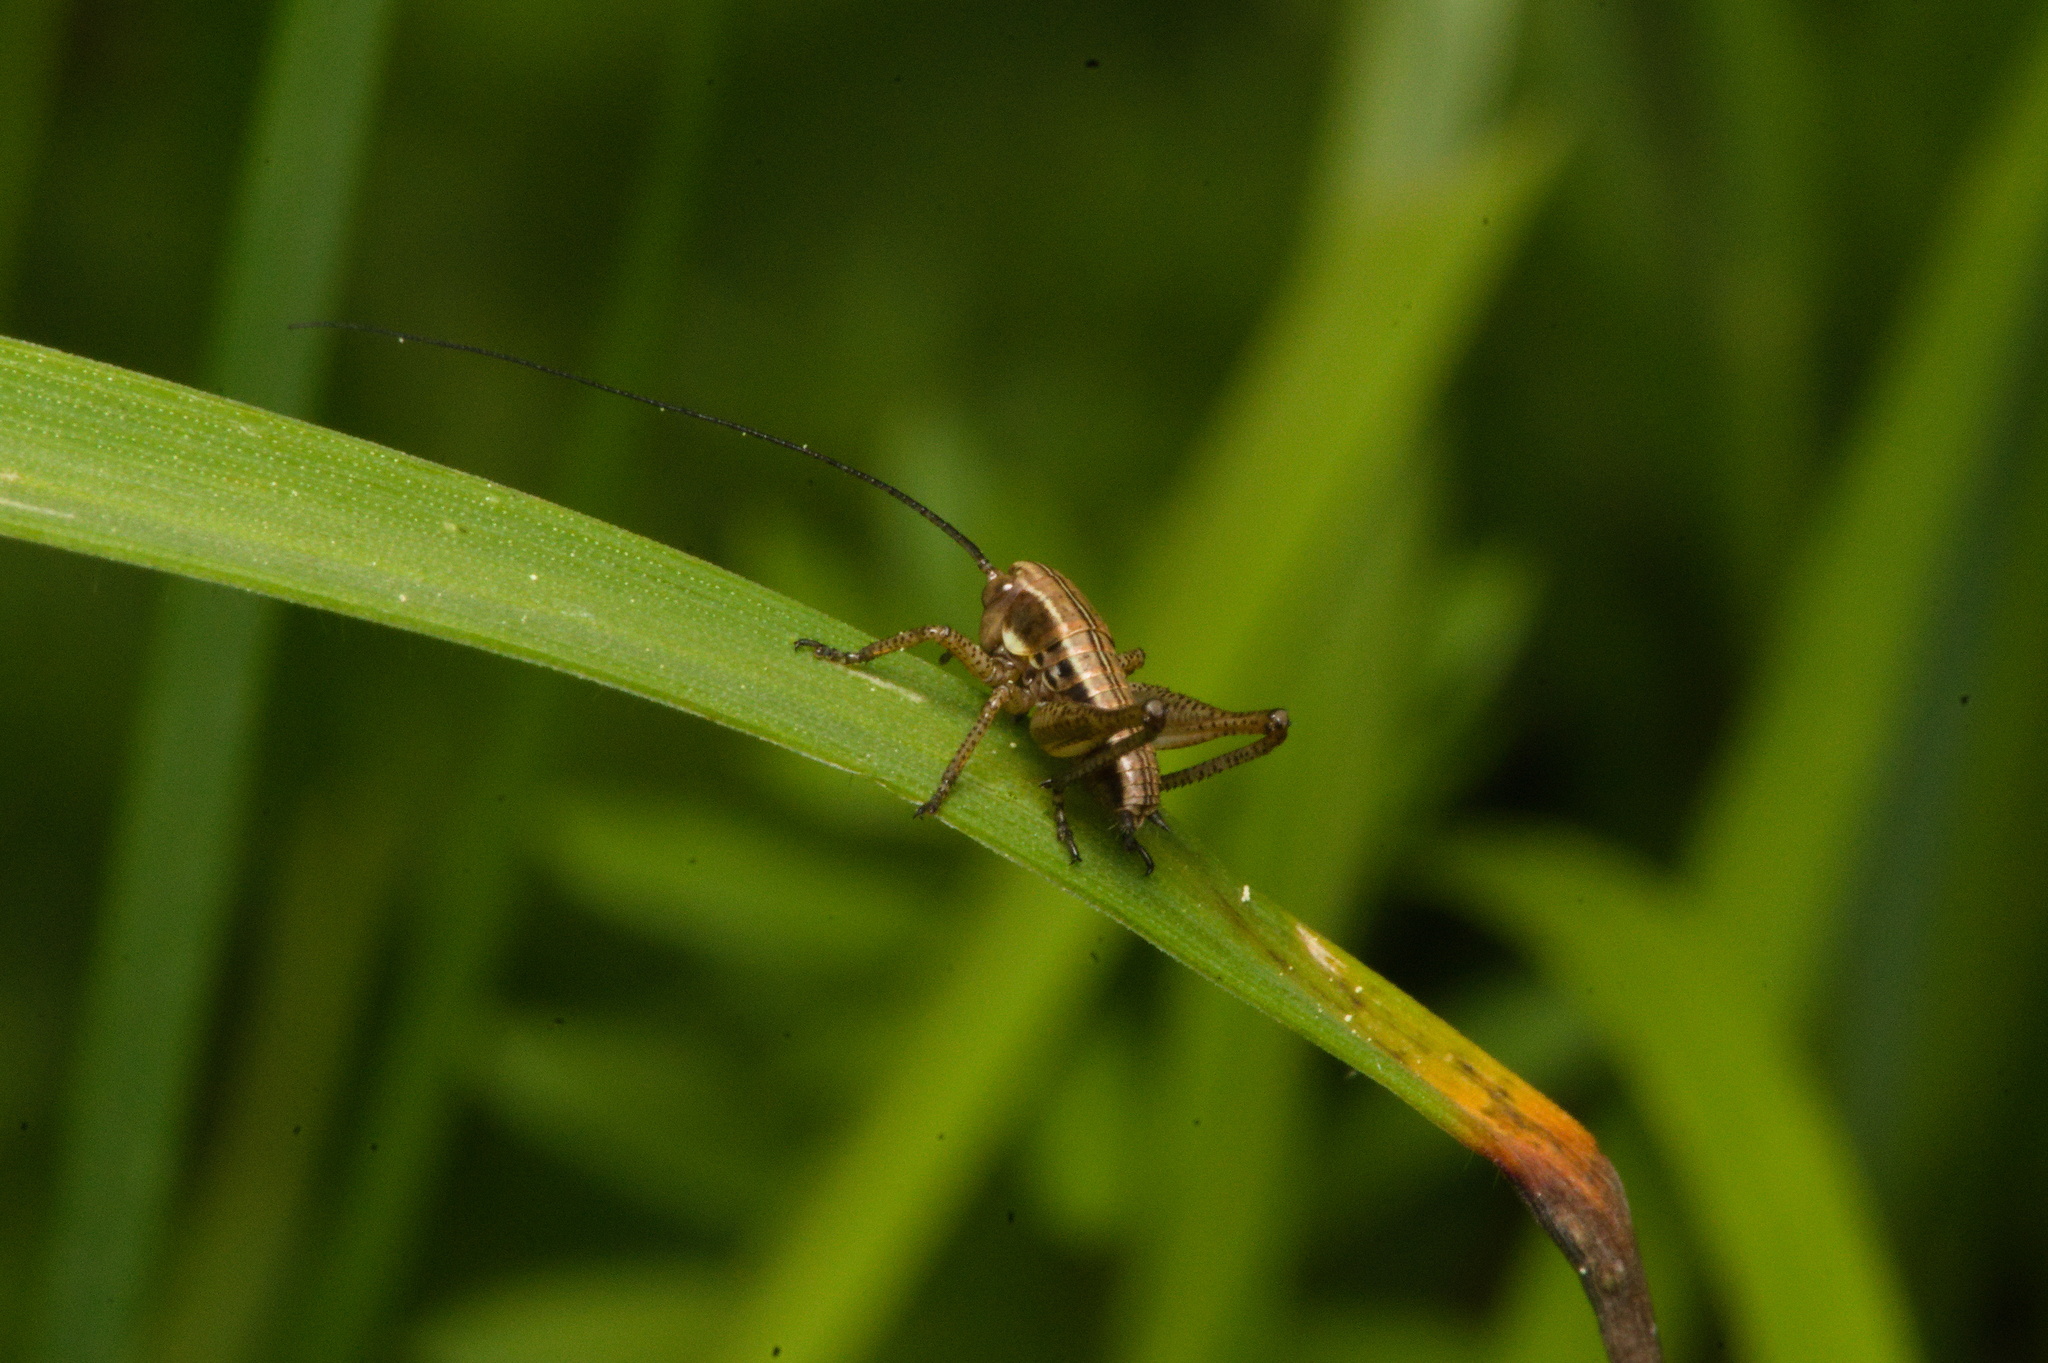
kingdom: Animalia
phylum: Arthropoda
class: Insecta
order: Orthoptera
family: Tettigoniidae
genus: Roeseliana
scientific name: Roeseliana roeselii
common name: Roesel's bush cricket
